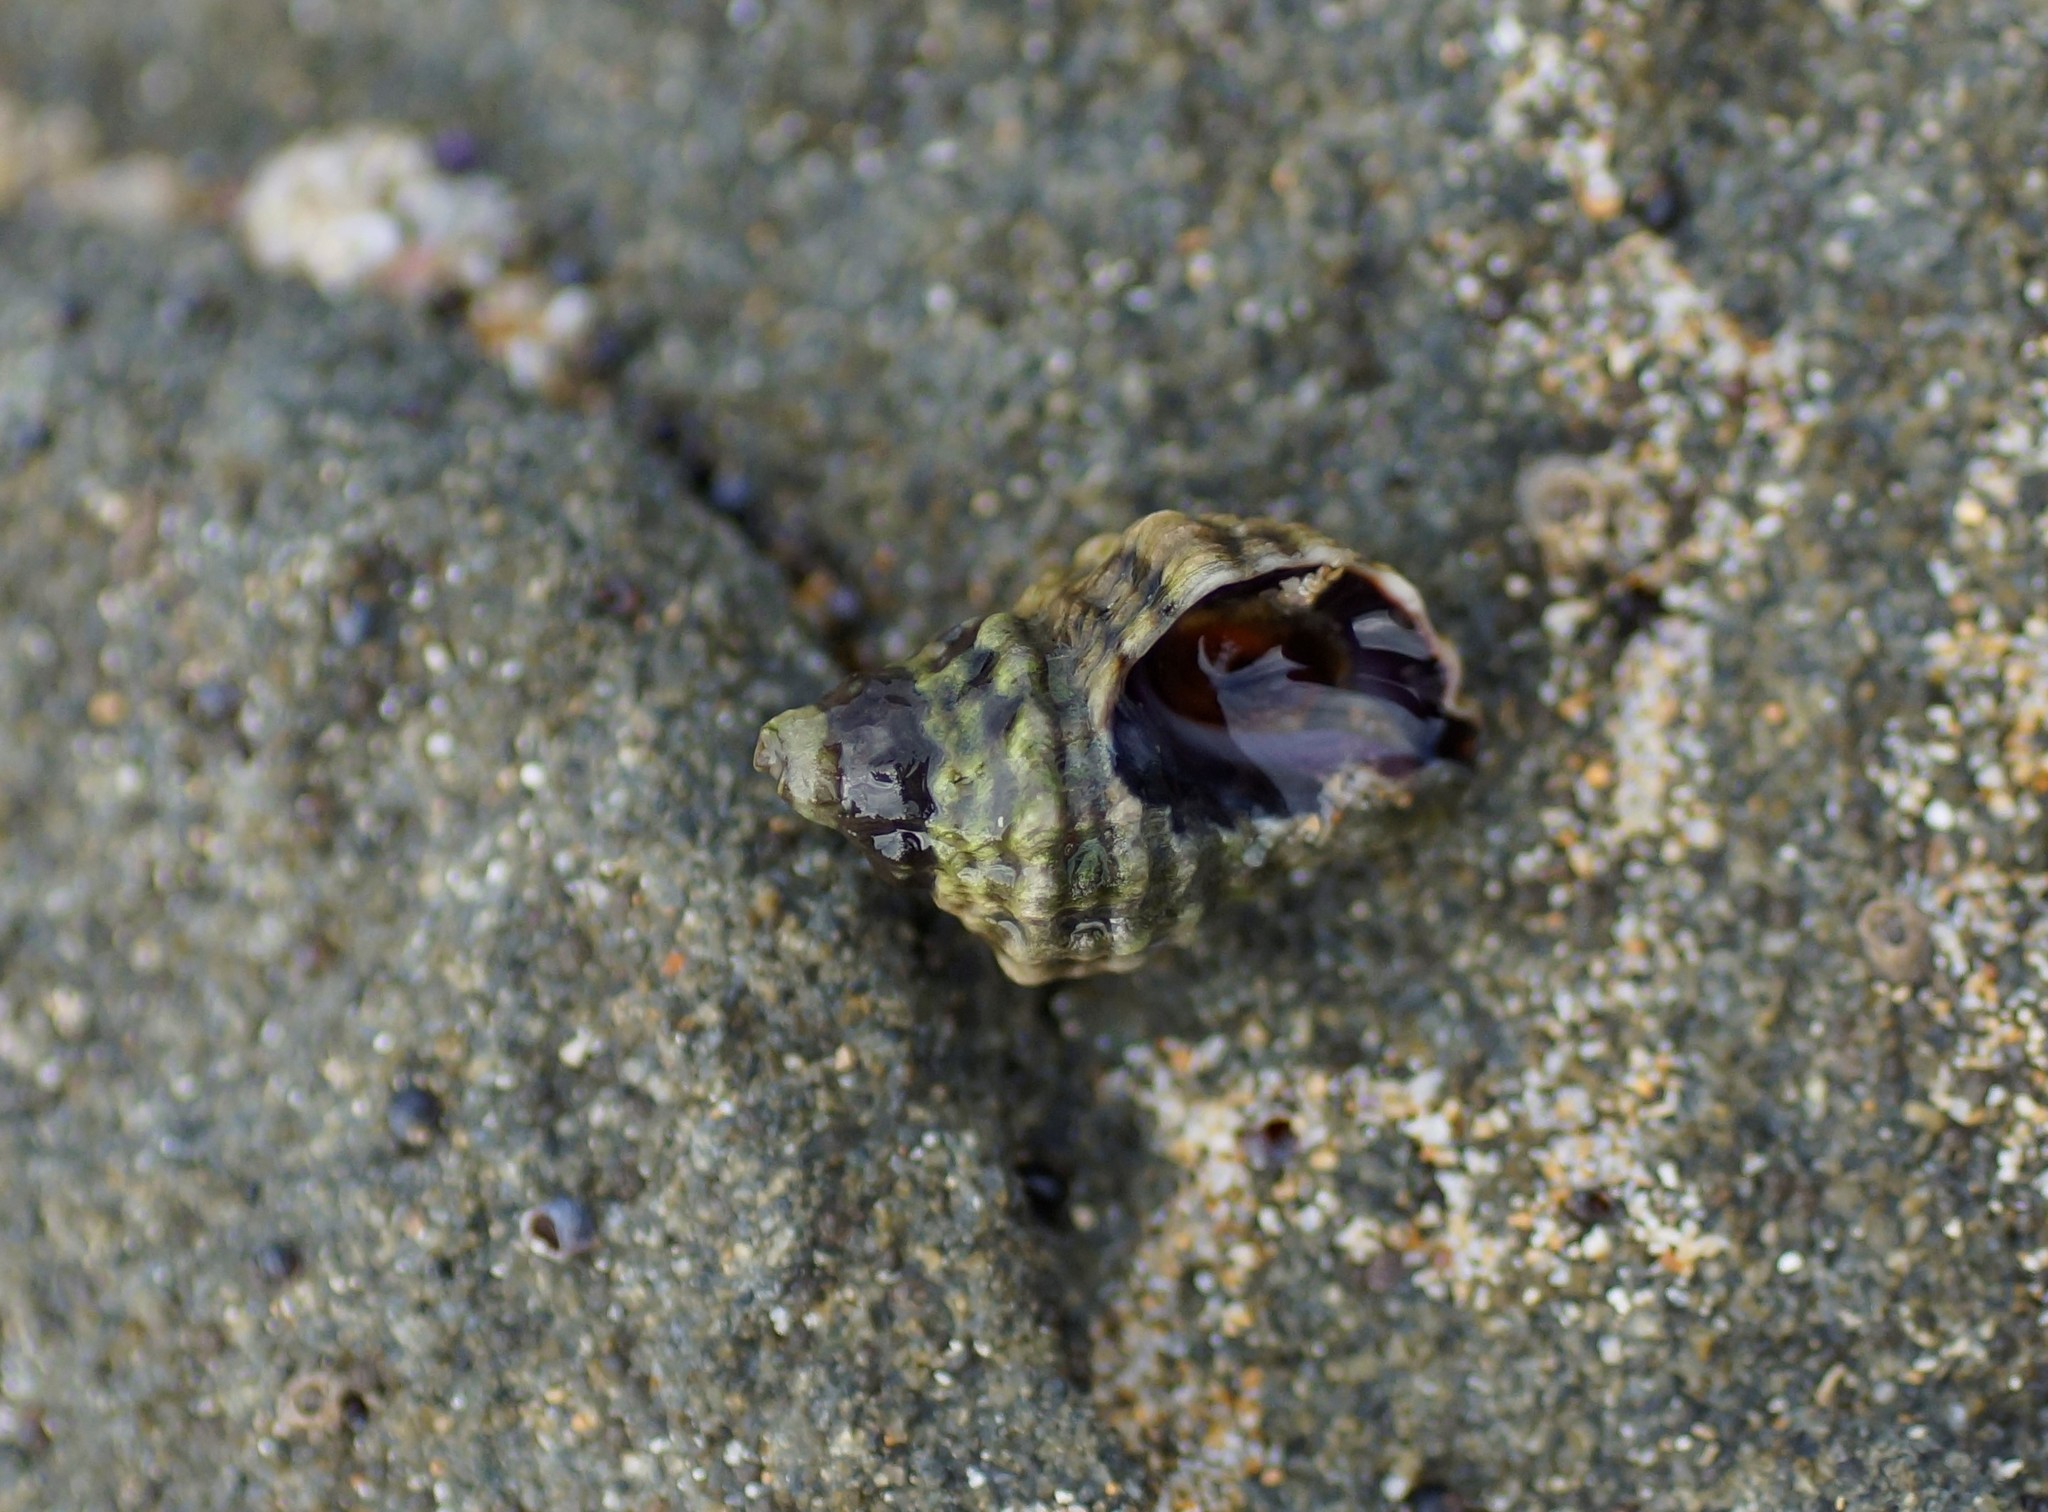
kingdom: Animalia
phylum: Mollusca
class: Gastropoda
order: Neogastropoda
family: Muricidae
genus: Bedeva
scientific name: Bedeva vinosa
